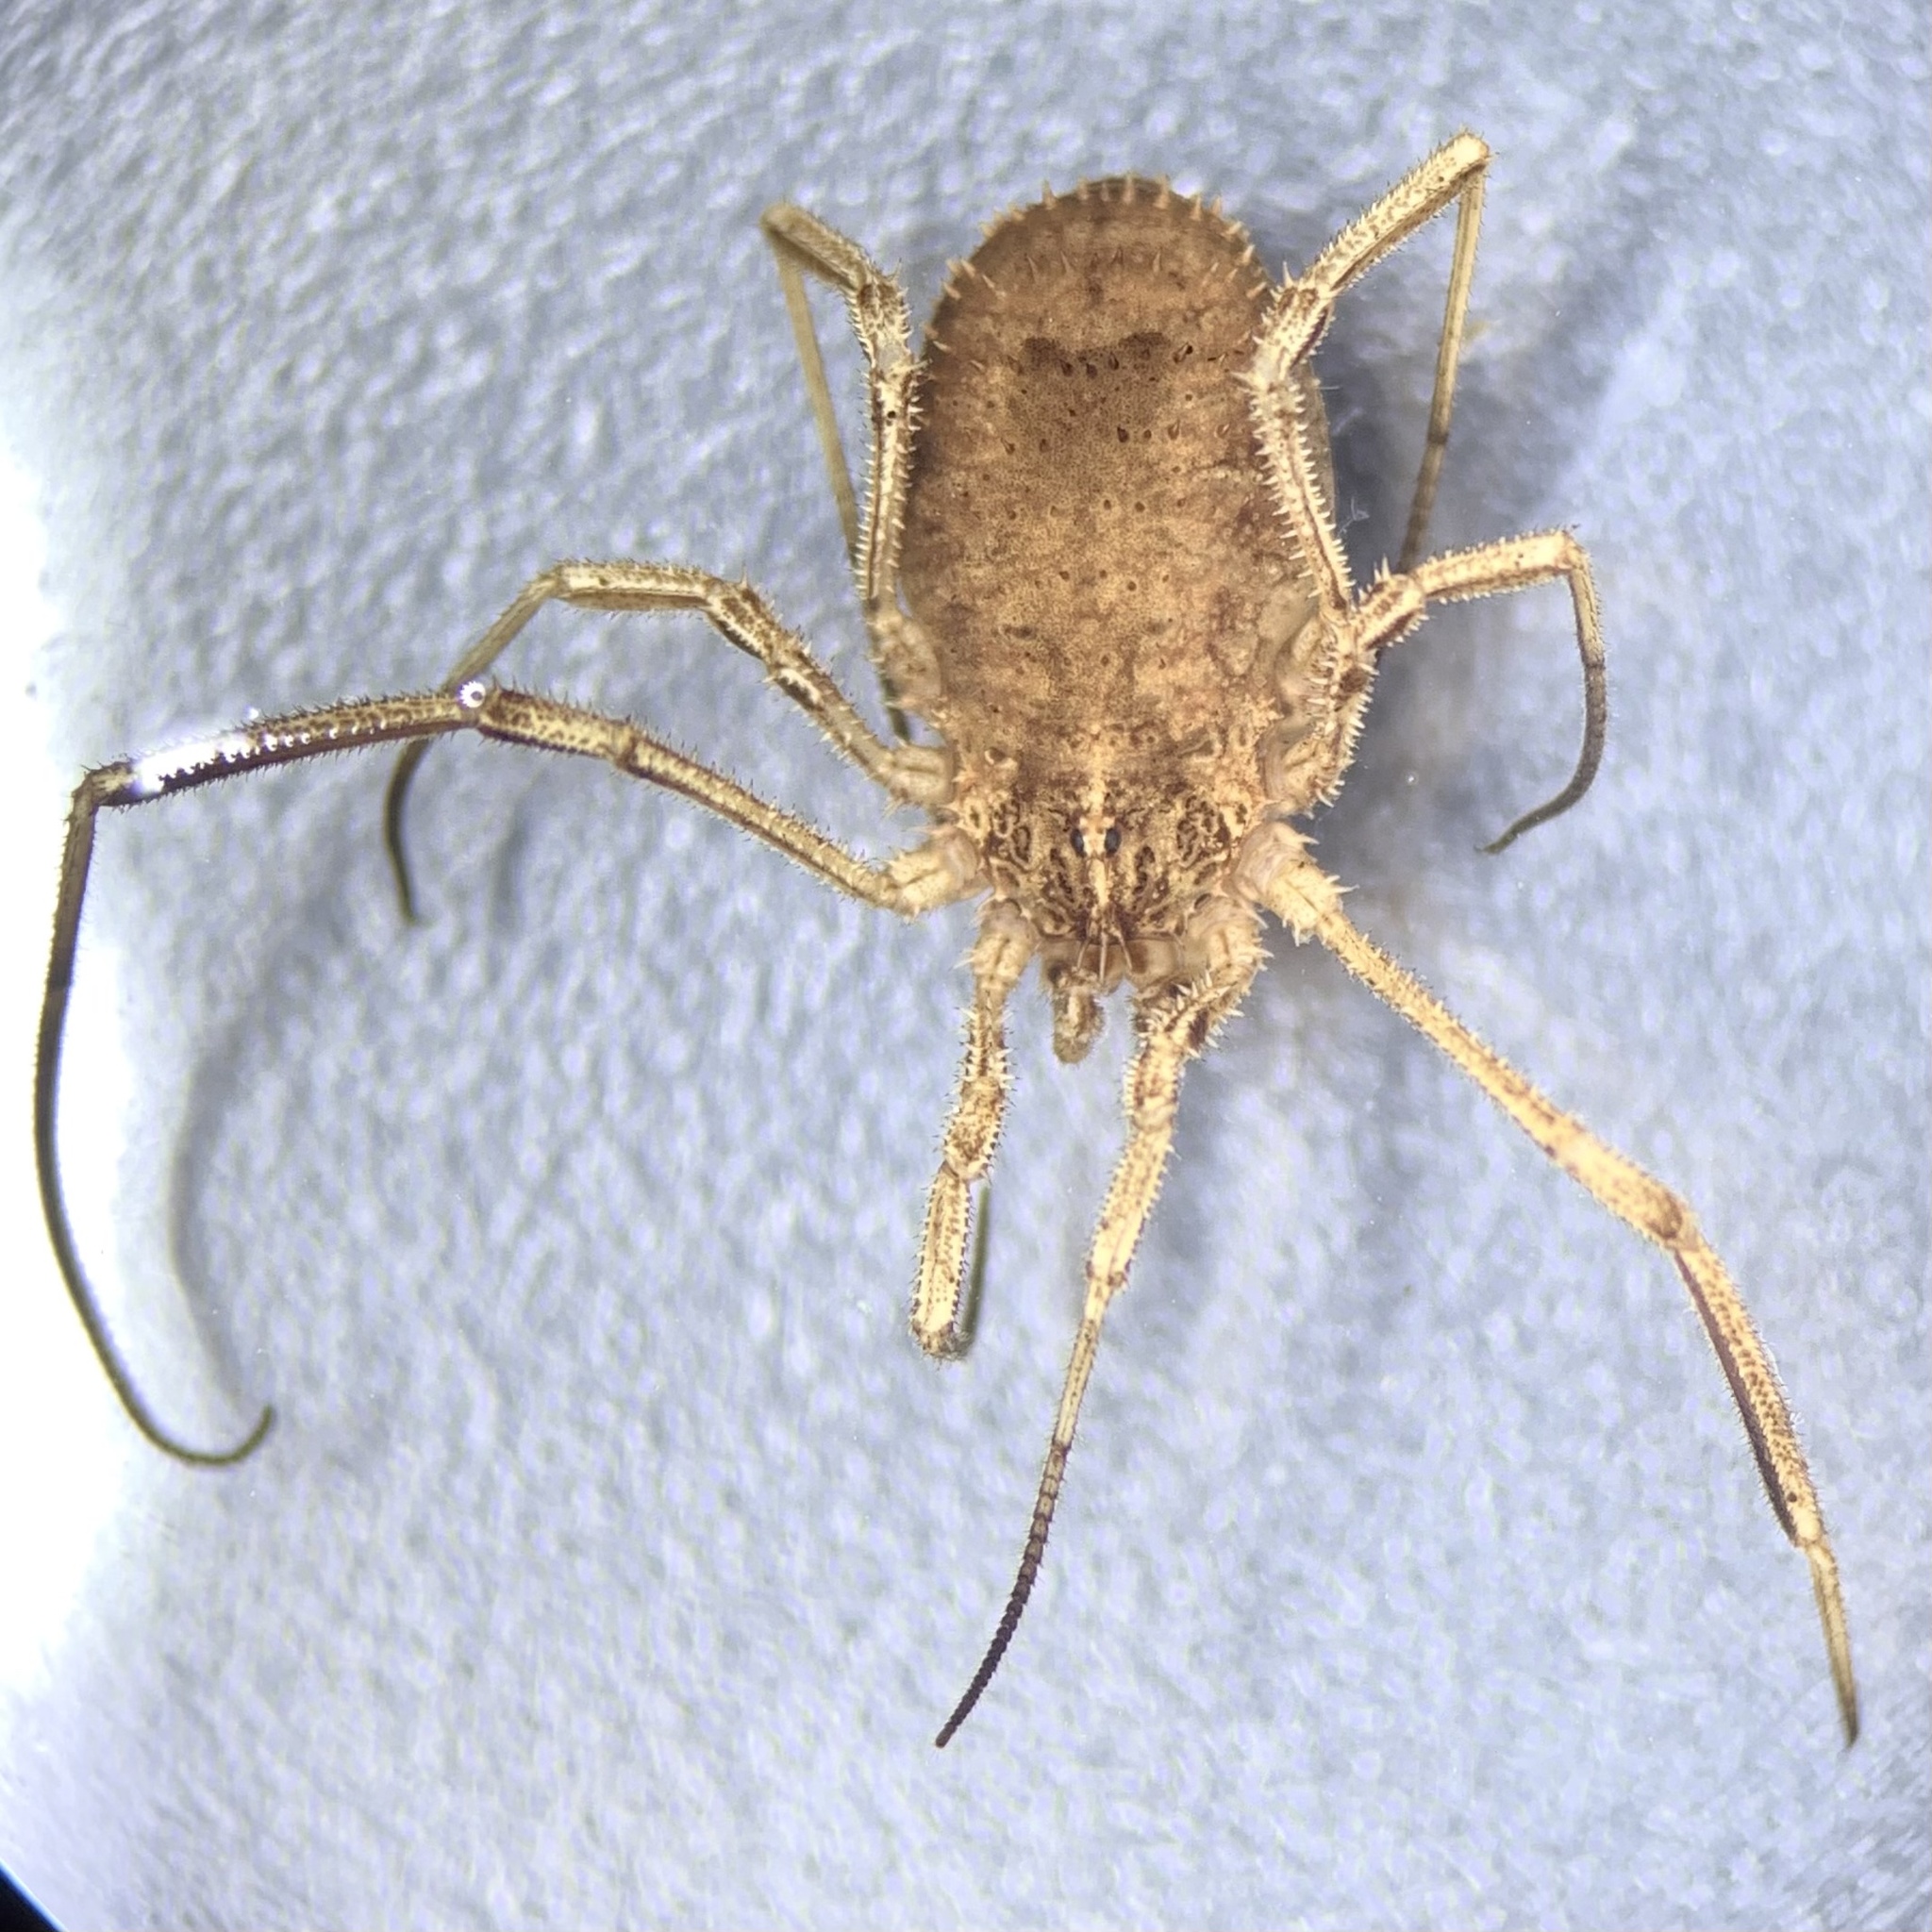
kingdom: Animalia
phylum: Arthropoda
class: Arachnida
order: Opiliones
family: Phalangiidae
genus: Lacinius
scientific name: Lacinius horridus
